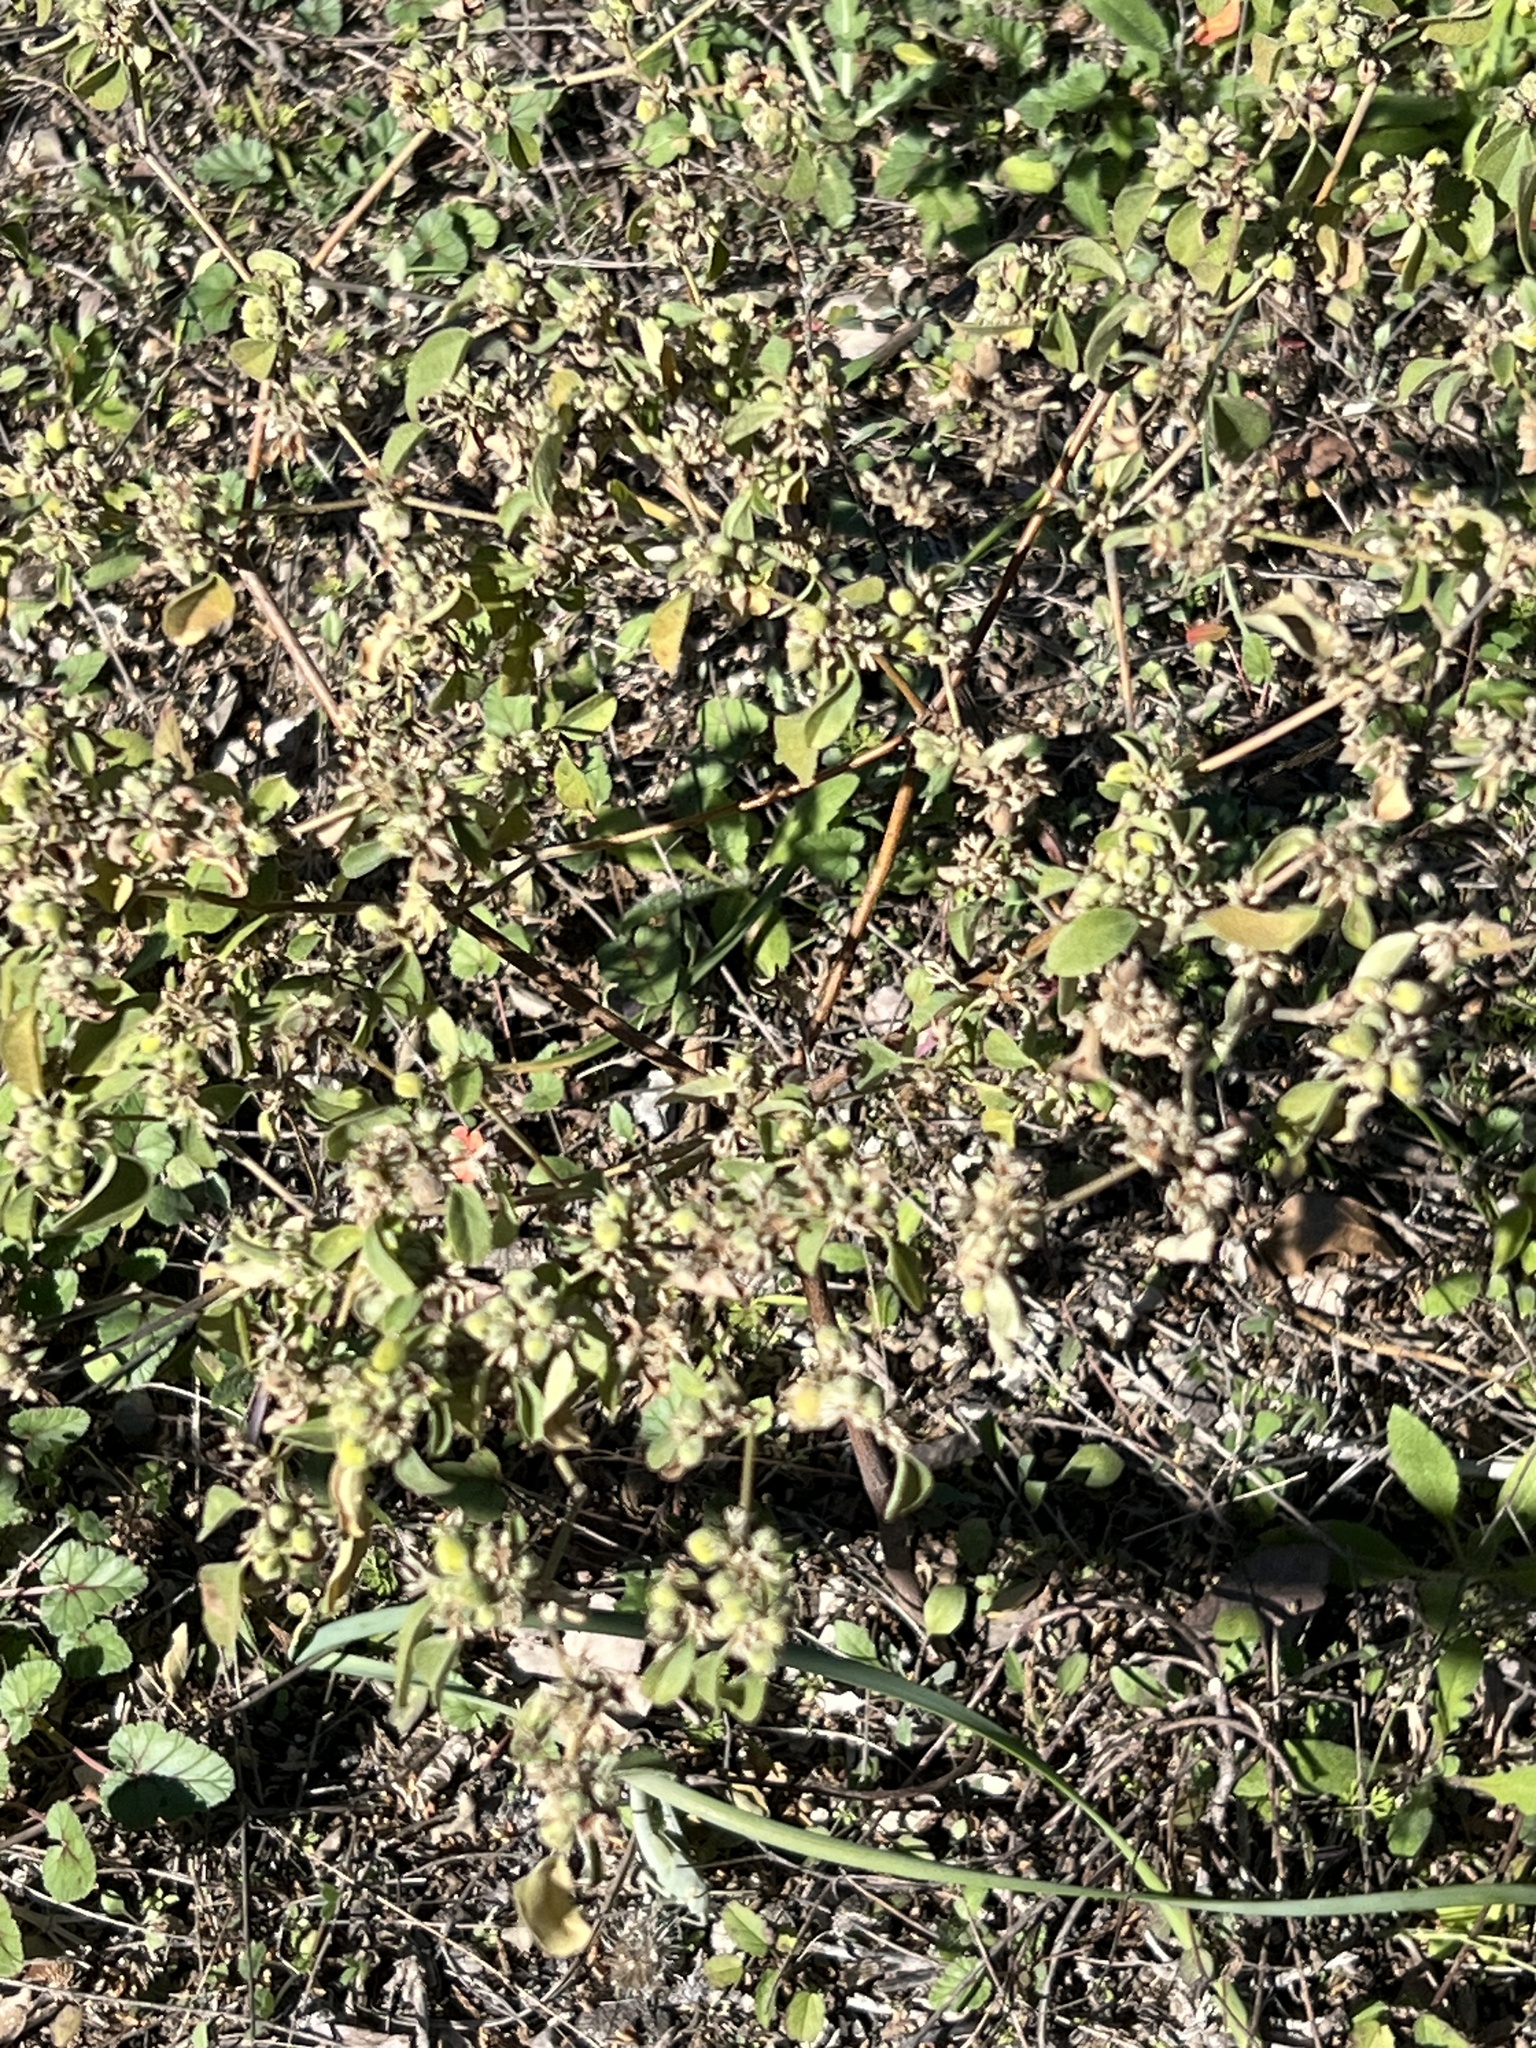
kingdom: Plantae
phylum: Tracheophyta
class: Magnoliopsida
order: Malpighiales
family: Euphorbiaceae
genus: Croton
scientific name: Croton monanthogynus
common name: One-seed croton
